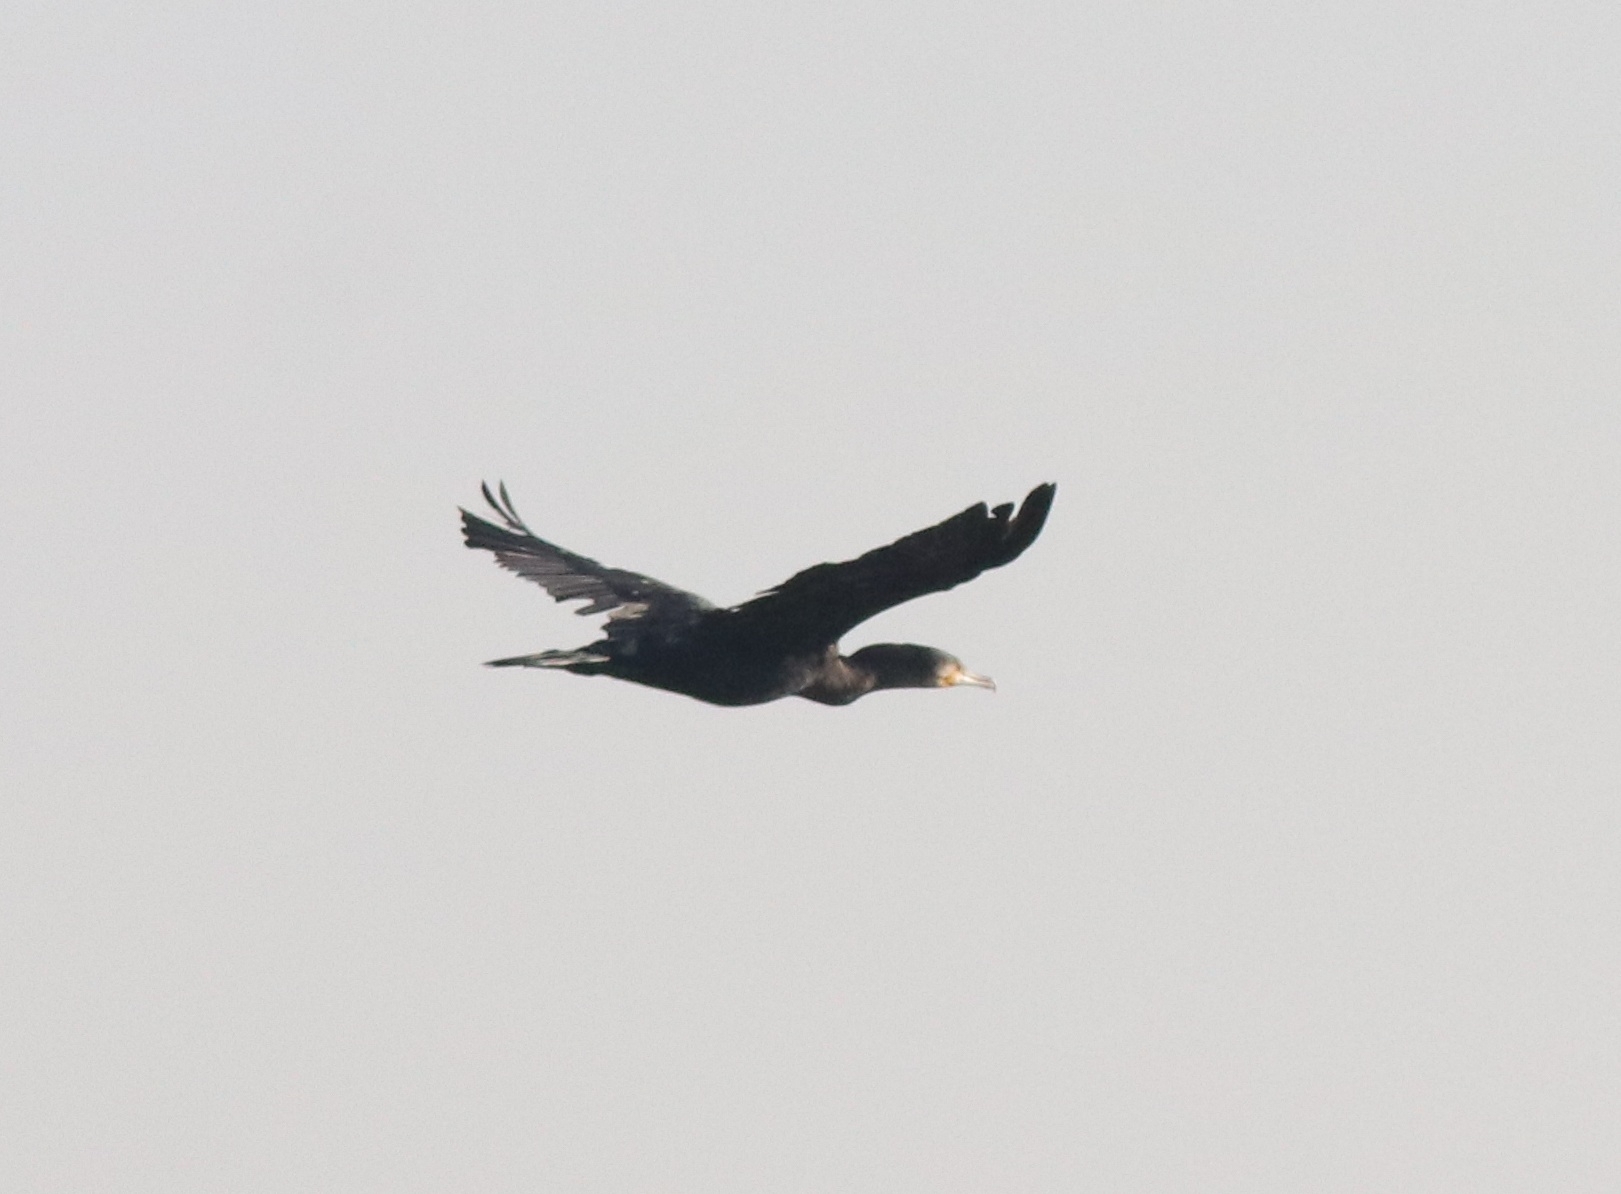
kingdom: Animalia
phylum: Chordata
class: Aves
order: Suliformes
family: Phalacrocoracidae
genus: Phalacrocorax
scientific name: Phalacrocorax carbo
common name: Great cormorant
